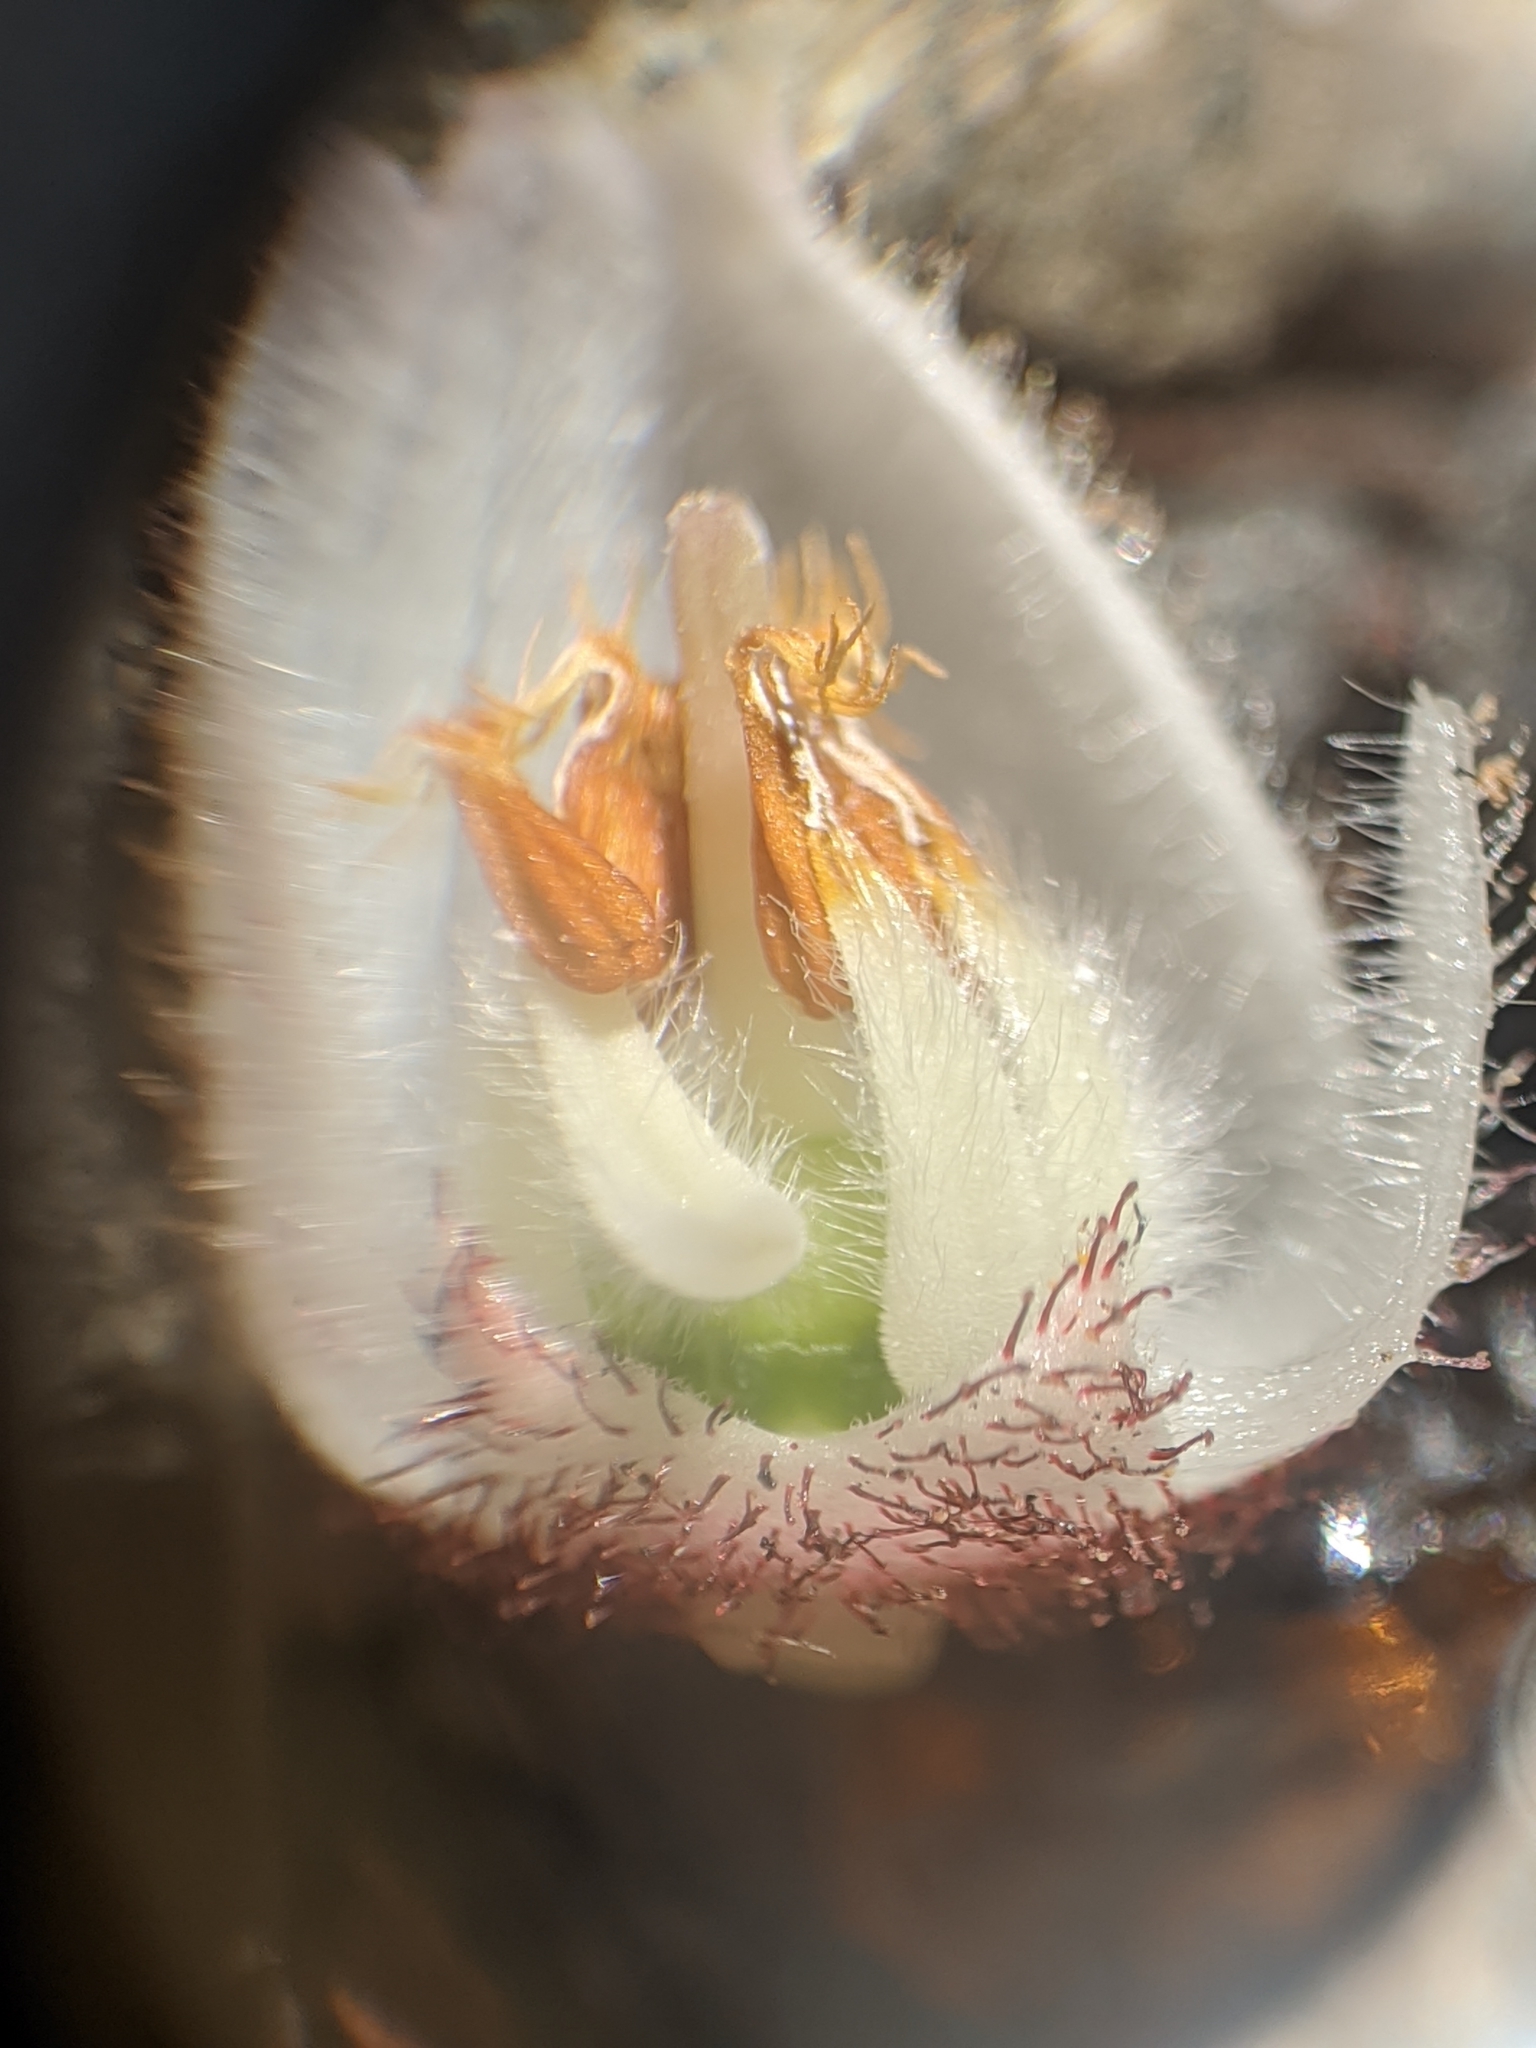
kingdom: Plantae
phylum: Tracheophyta
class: Magnoliopsida
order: Ericales
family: Ericaceae
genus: Gaultheria
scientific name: Gaultheria shallon
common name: Shallon
